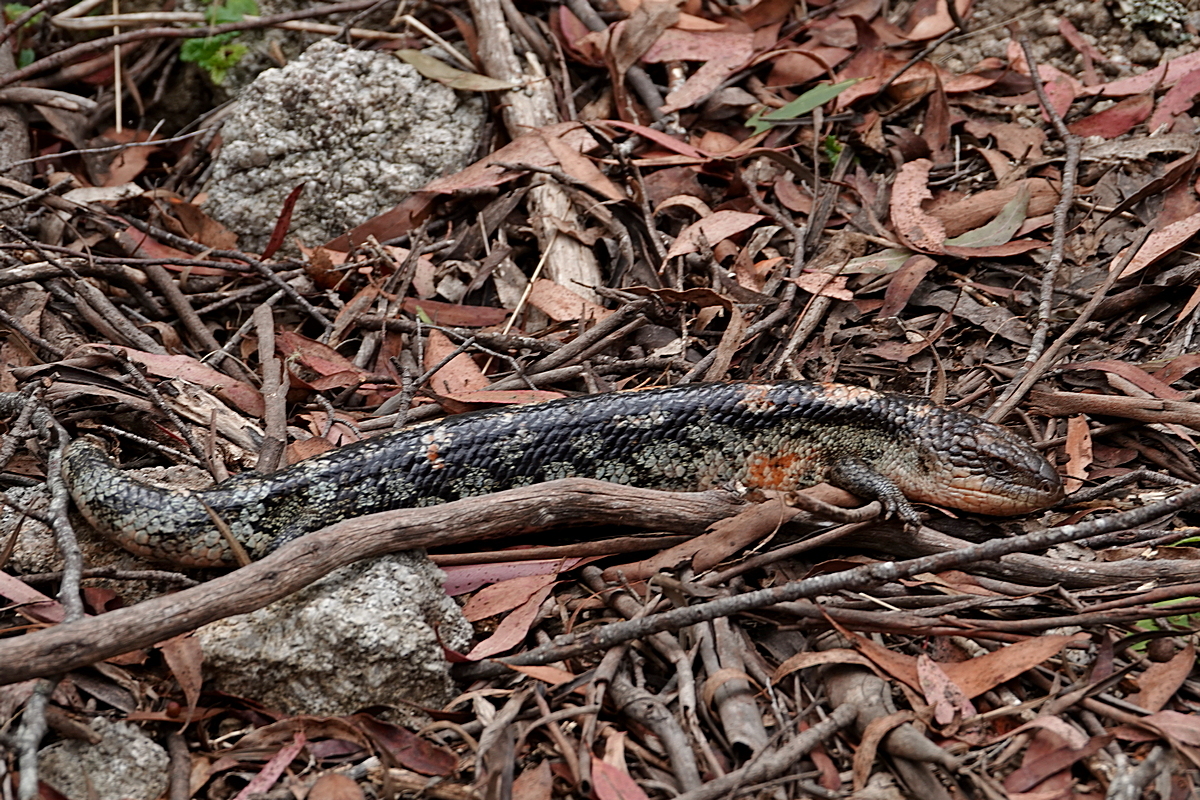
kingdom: Animalia
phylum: Chordata
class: Squamata
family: Scincidae
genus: Tiliqua
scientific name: Tiliqua nigrolutea
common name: Blotched blue-tongued lizard
